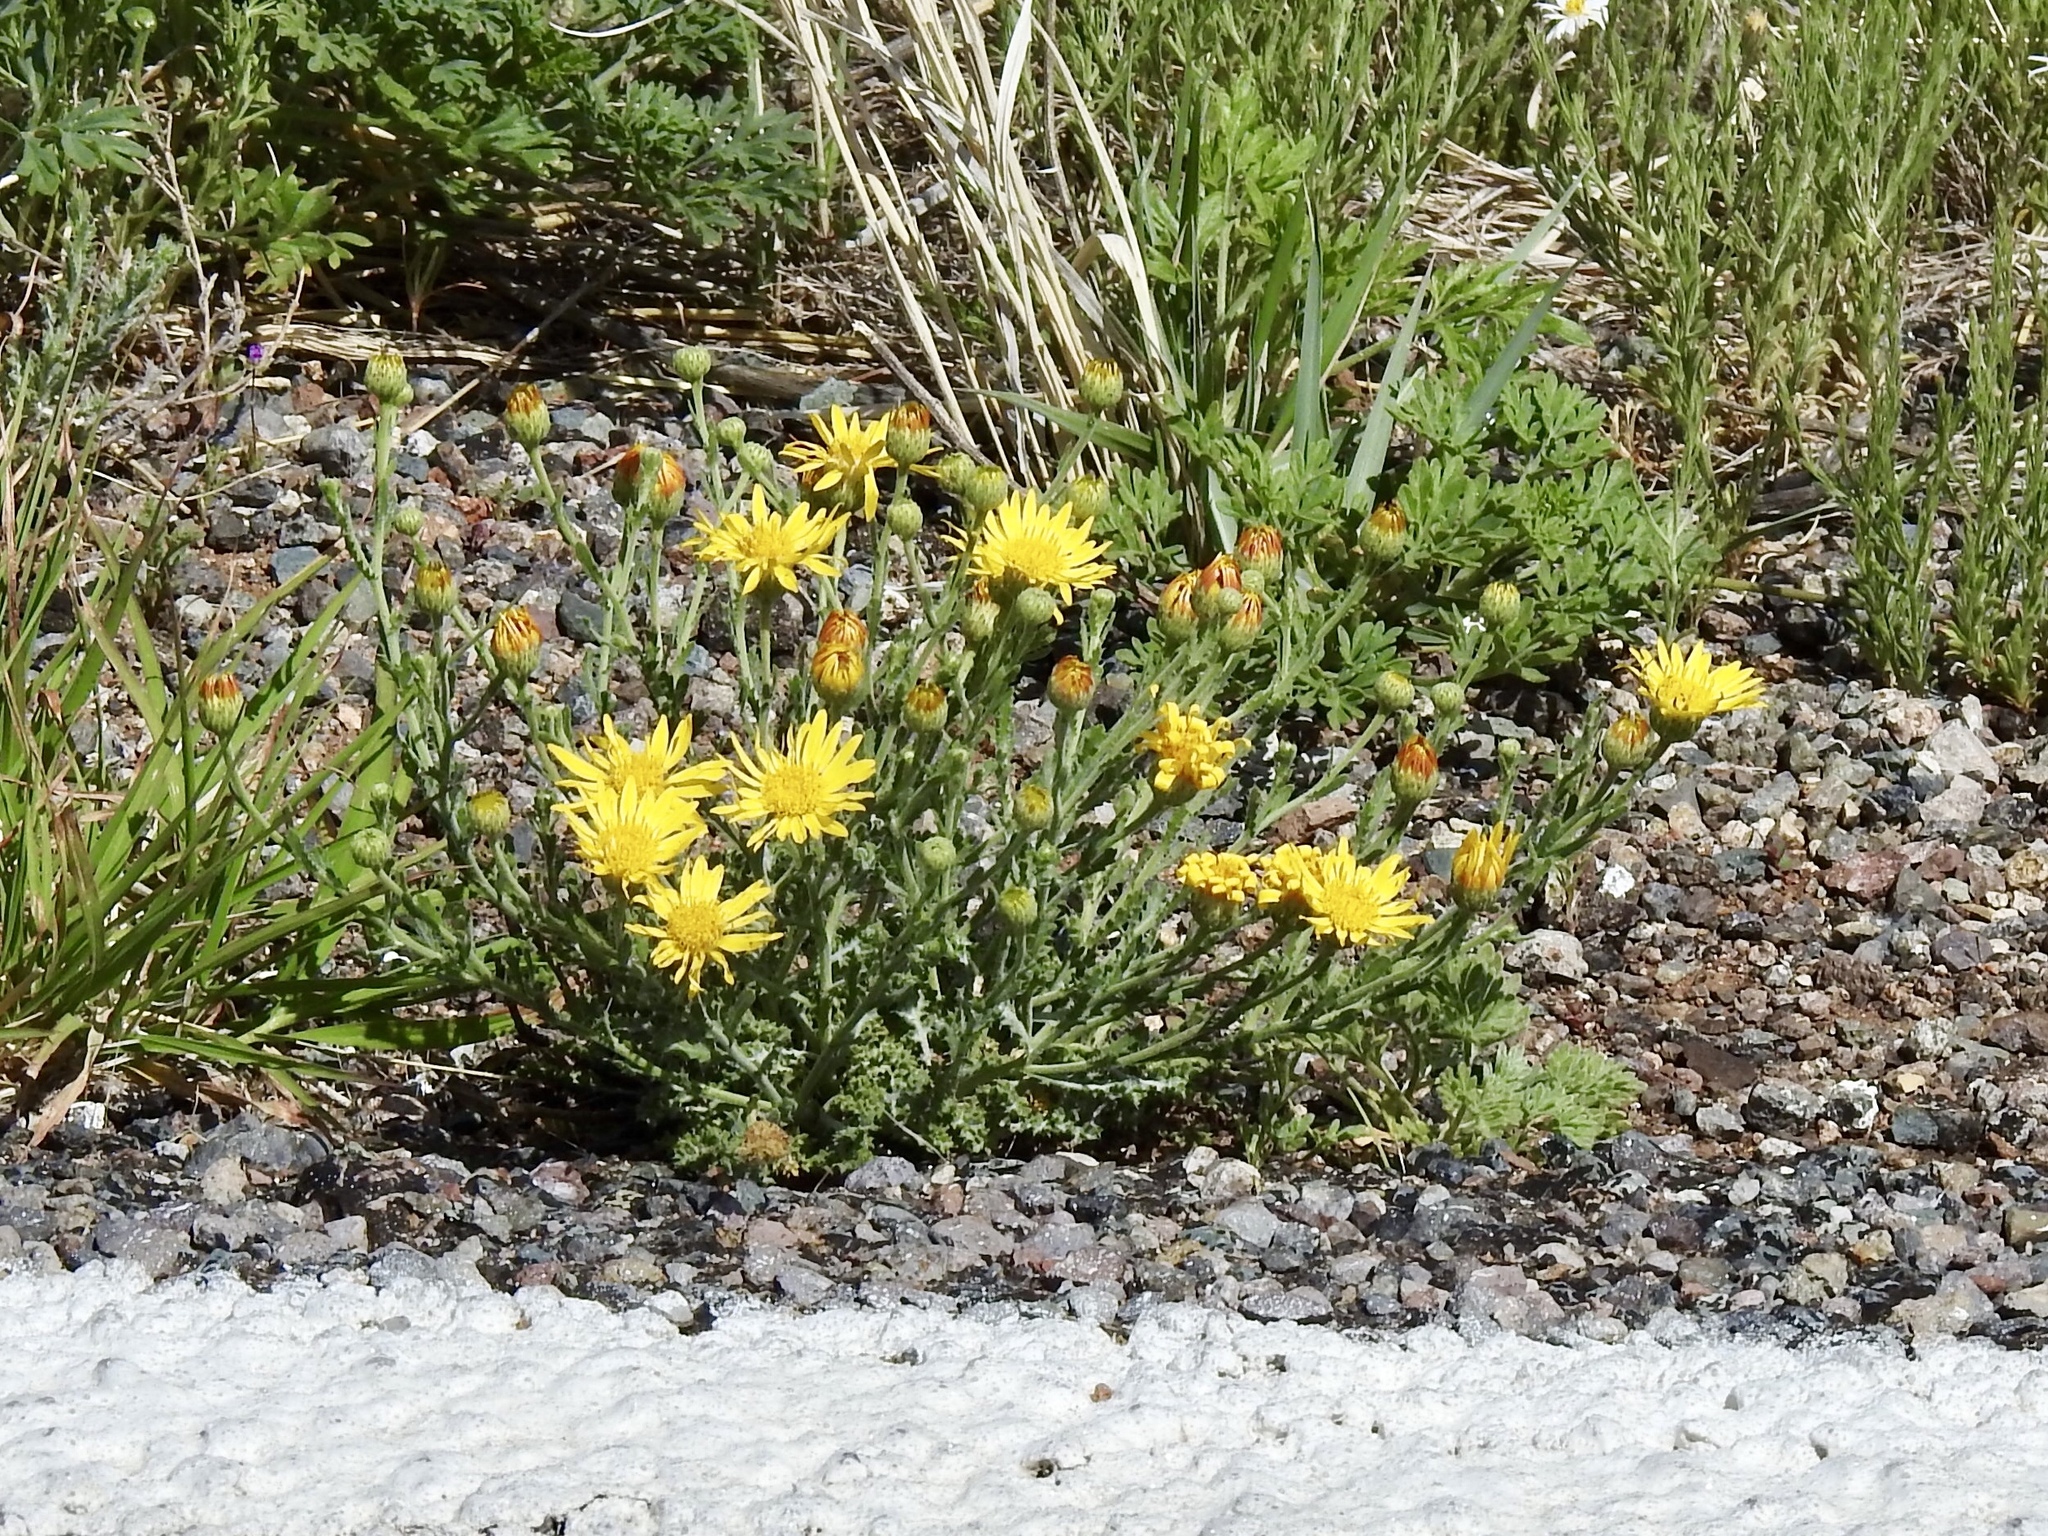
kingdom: Plantae
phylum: Tracheophyta
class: Magnoliopsida
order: Asterales
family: Asteraceae
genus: Xanthisma
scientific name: Xanthisma spinulosum
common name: Spiny goldenweed
